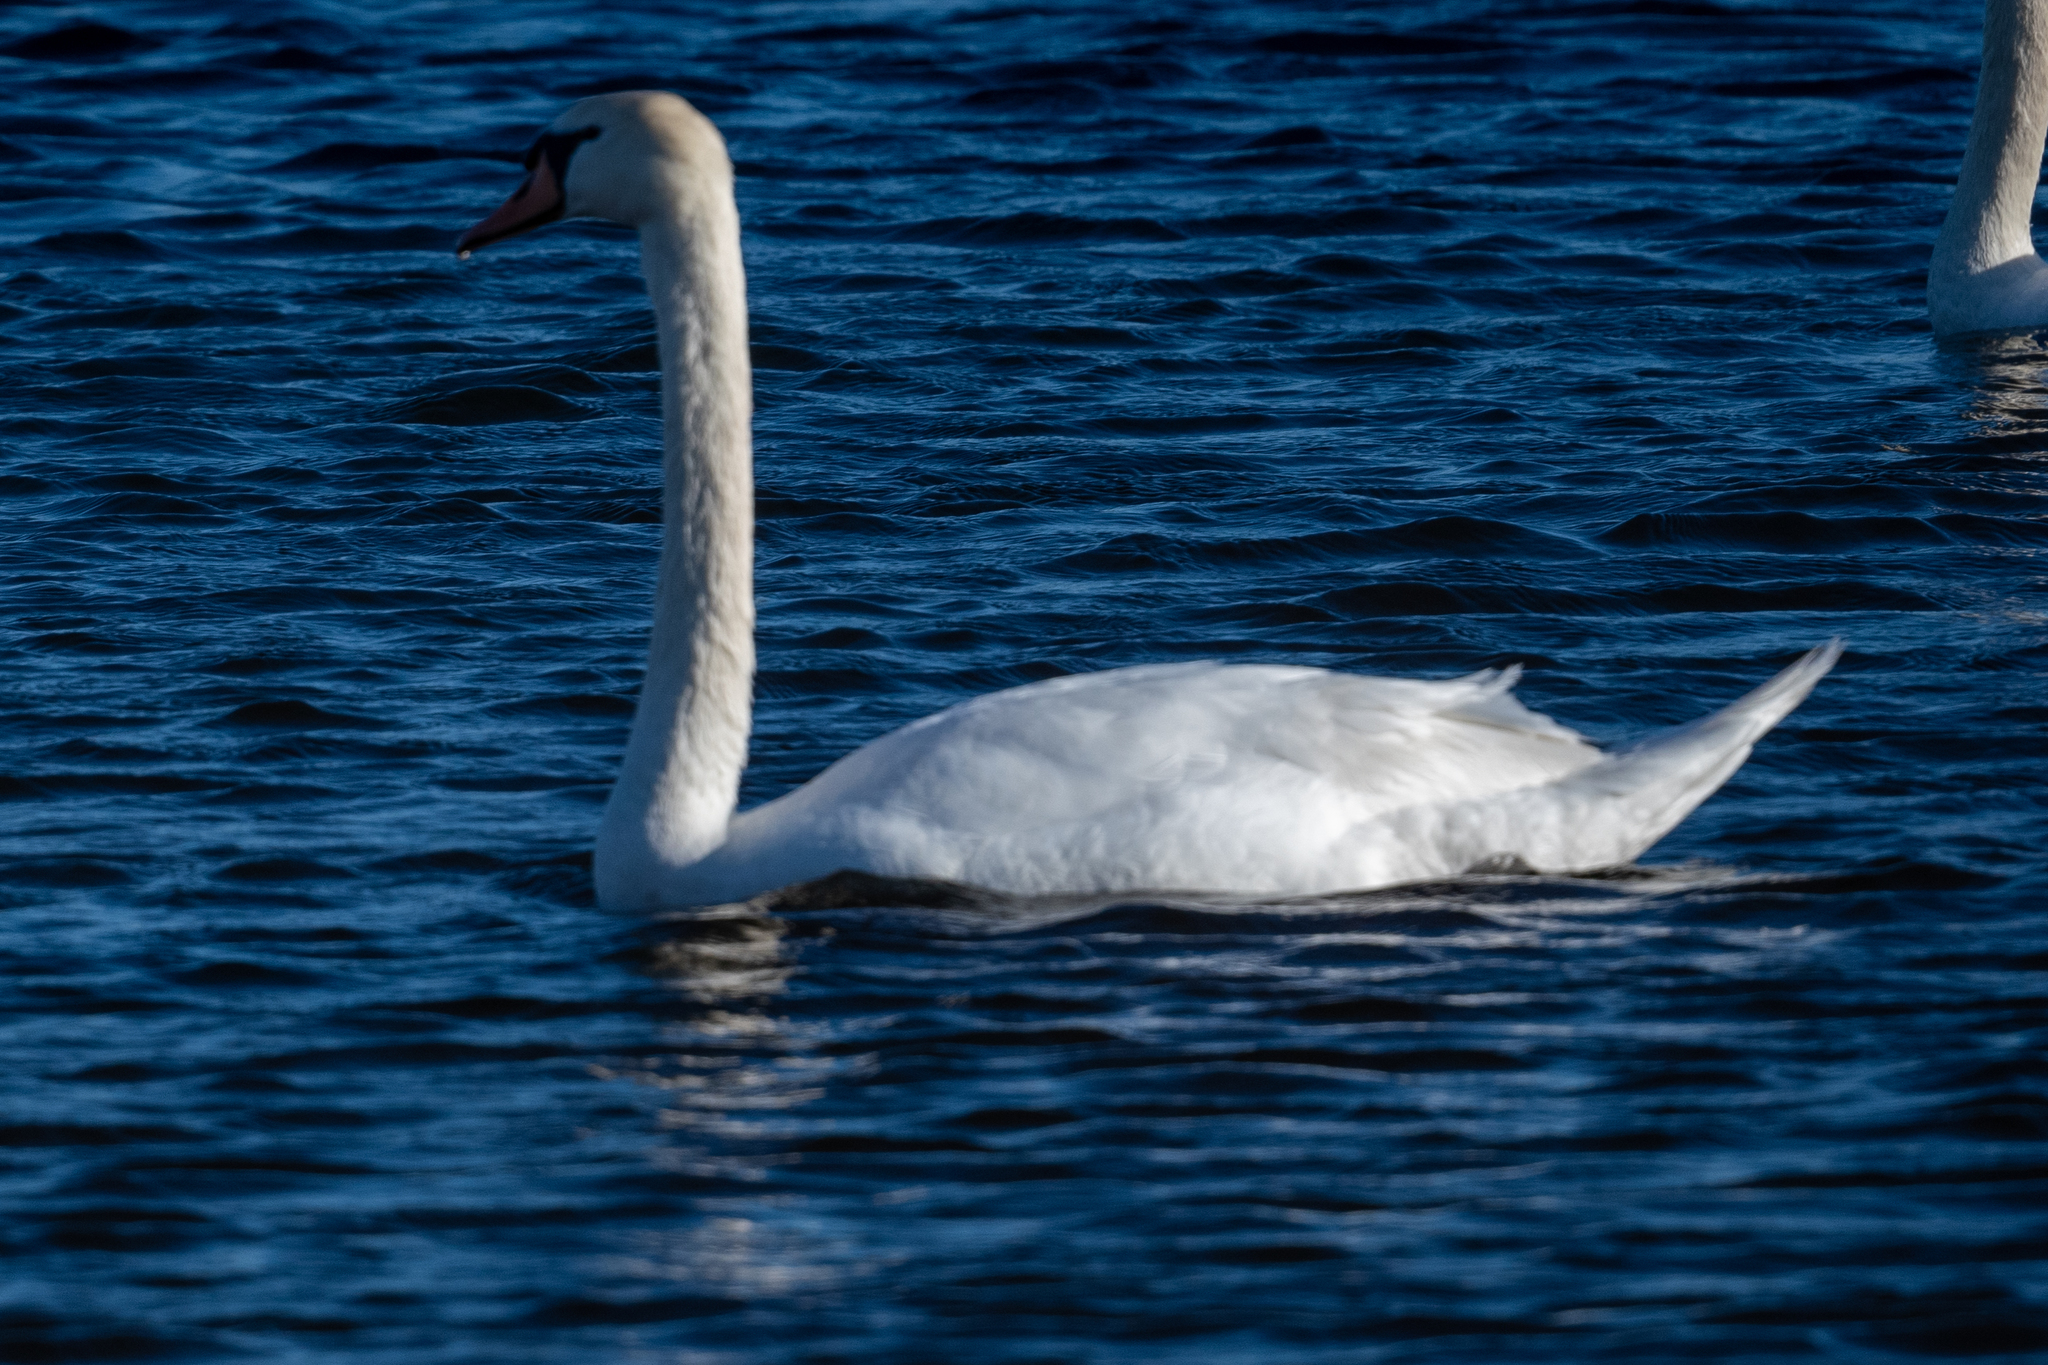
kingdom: Animalia
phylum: Chordata
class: Aves
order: Anseriformes
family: Anatidae
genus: Cygnus
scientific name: Cygnus olor
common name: Mute swan
